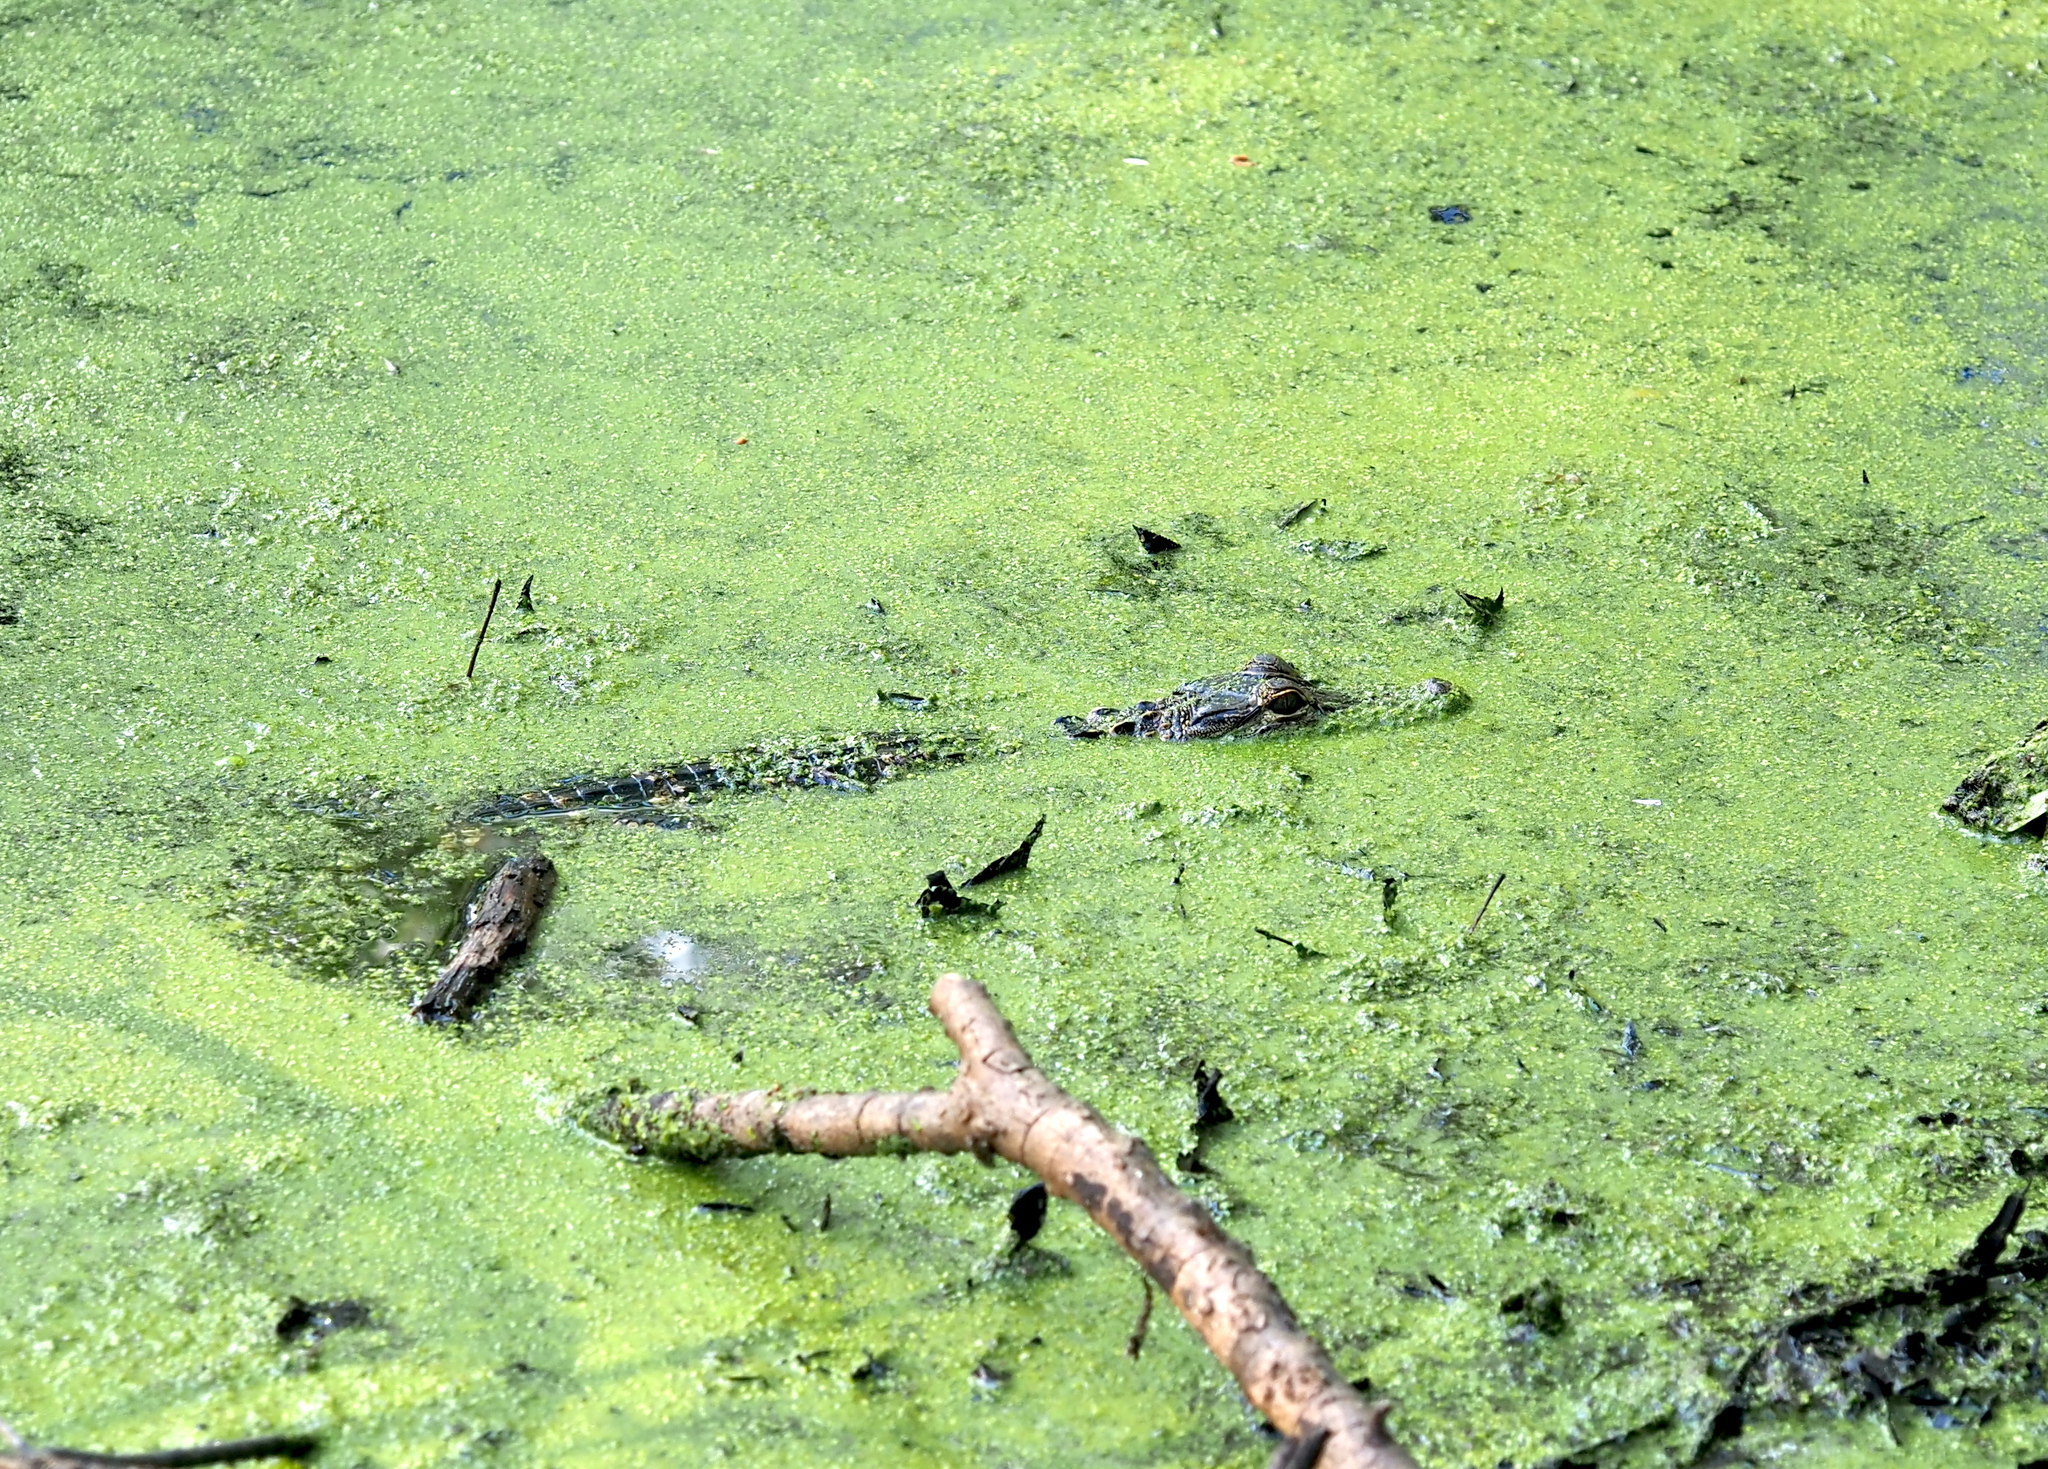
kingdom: Animalia
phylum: Chordata
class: Crocodylia
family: Alligatoridae
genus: Alligator
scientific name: Alligator mississippiensis
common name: American alligator
